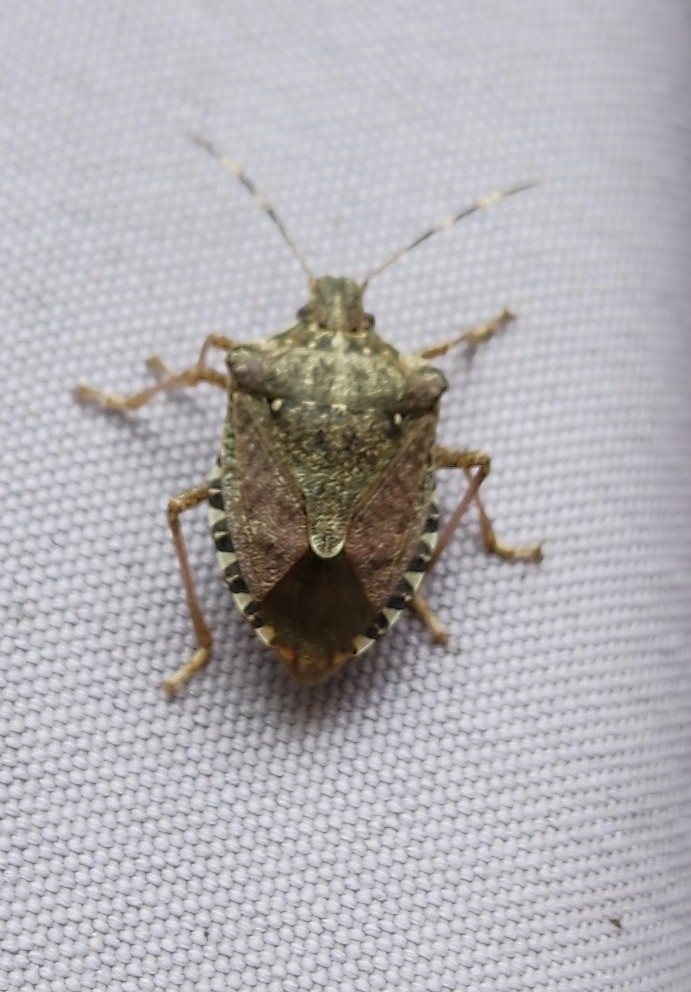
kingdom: Animalia
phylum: Arthropoda
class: Insecta
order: Hemiptera
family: Pentatomidae
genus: Halyomorpha
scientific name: Halyomorpha halys
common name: Brown marmorated stink bug
